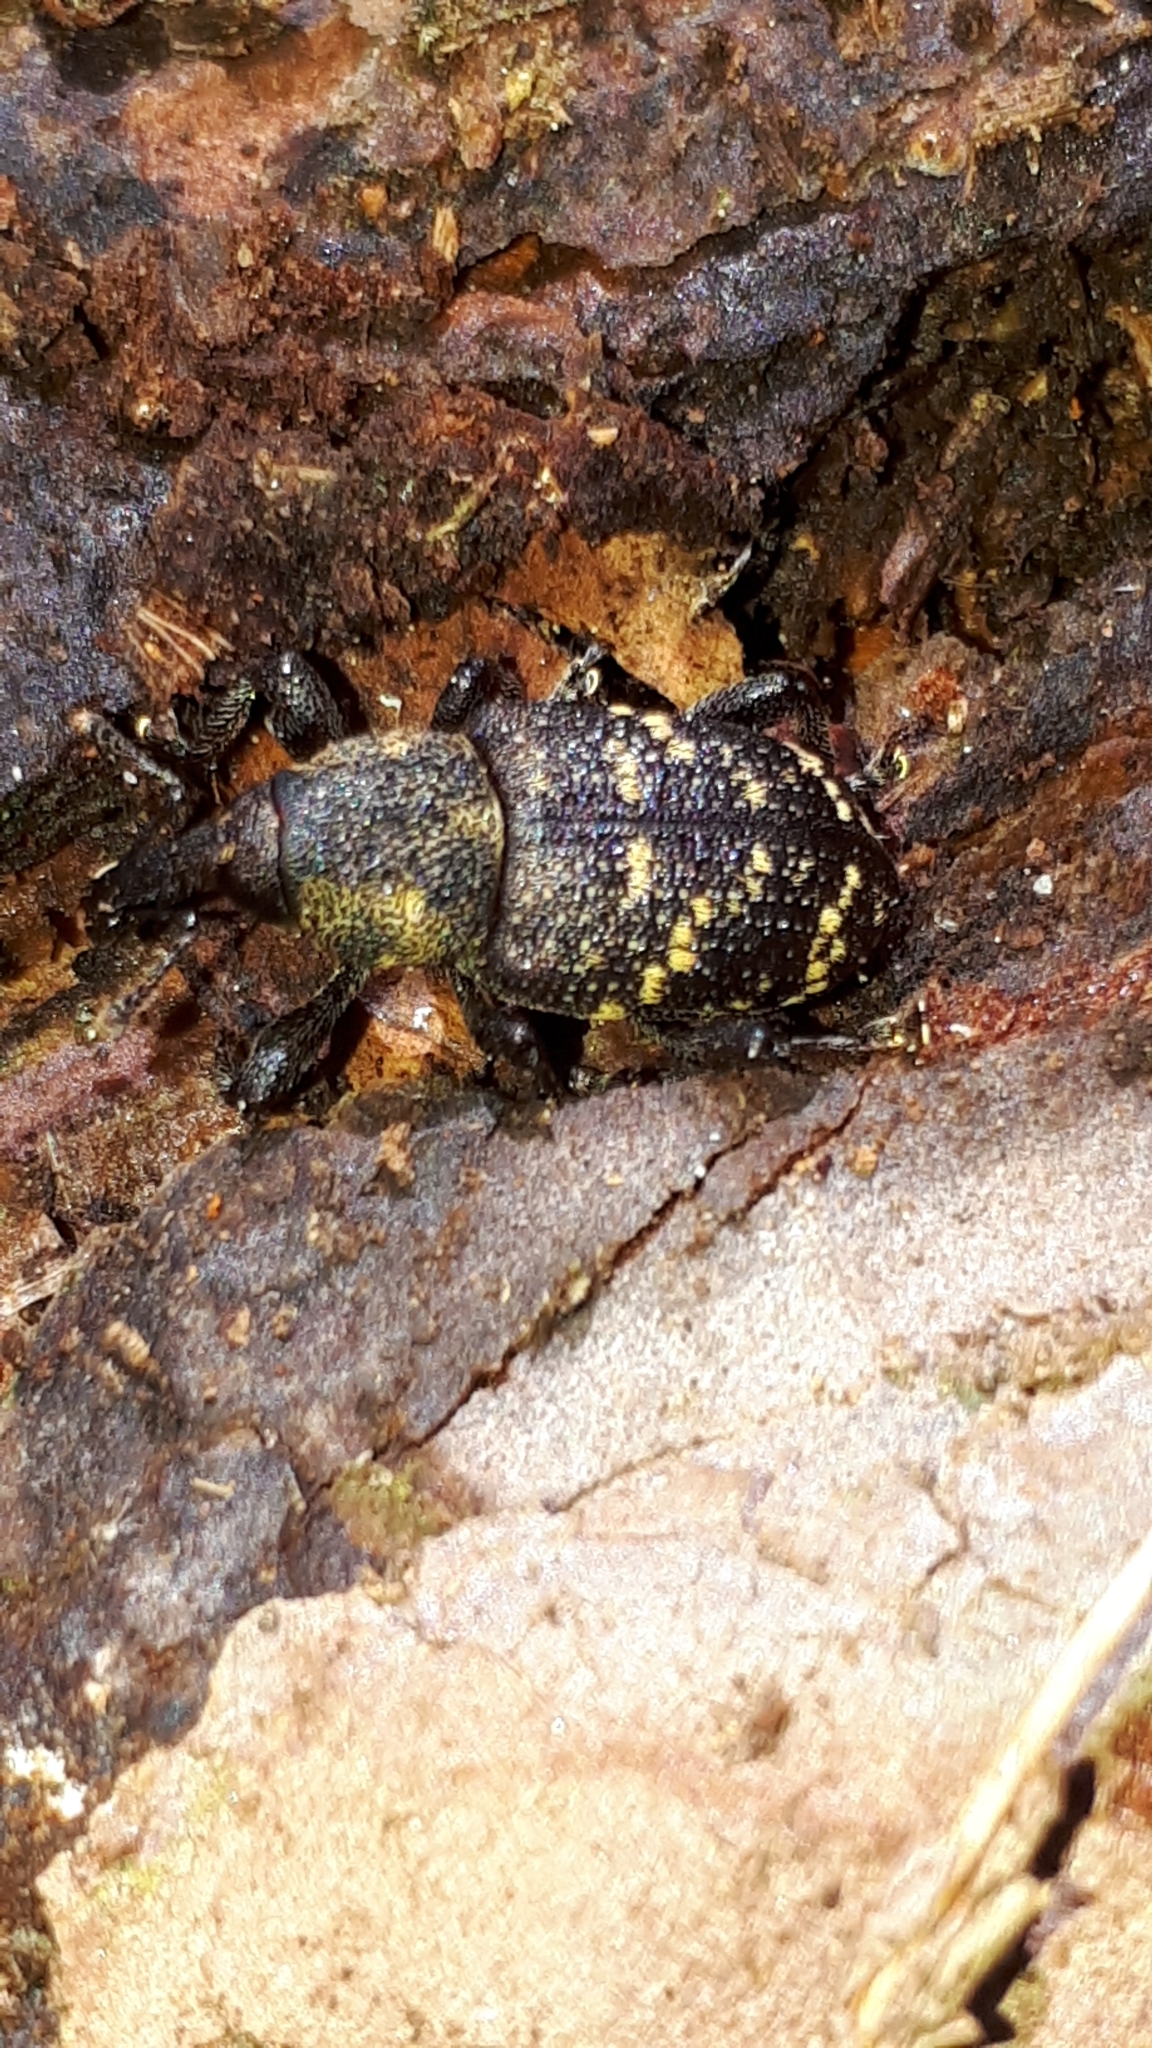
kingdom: Animalia
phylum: Arthropoda
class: Insecta
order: Coleoptera
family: Curculionidae
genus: Hylobius
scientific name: Hylobius abietis
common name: Large pine weevil
